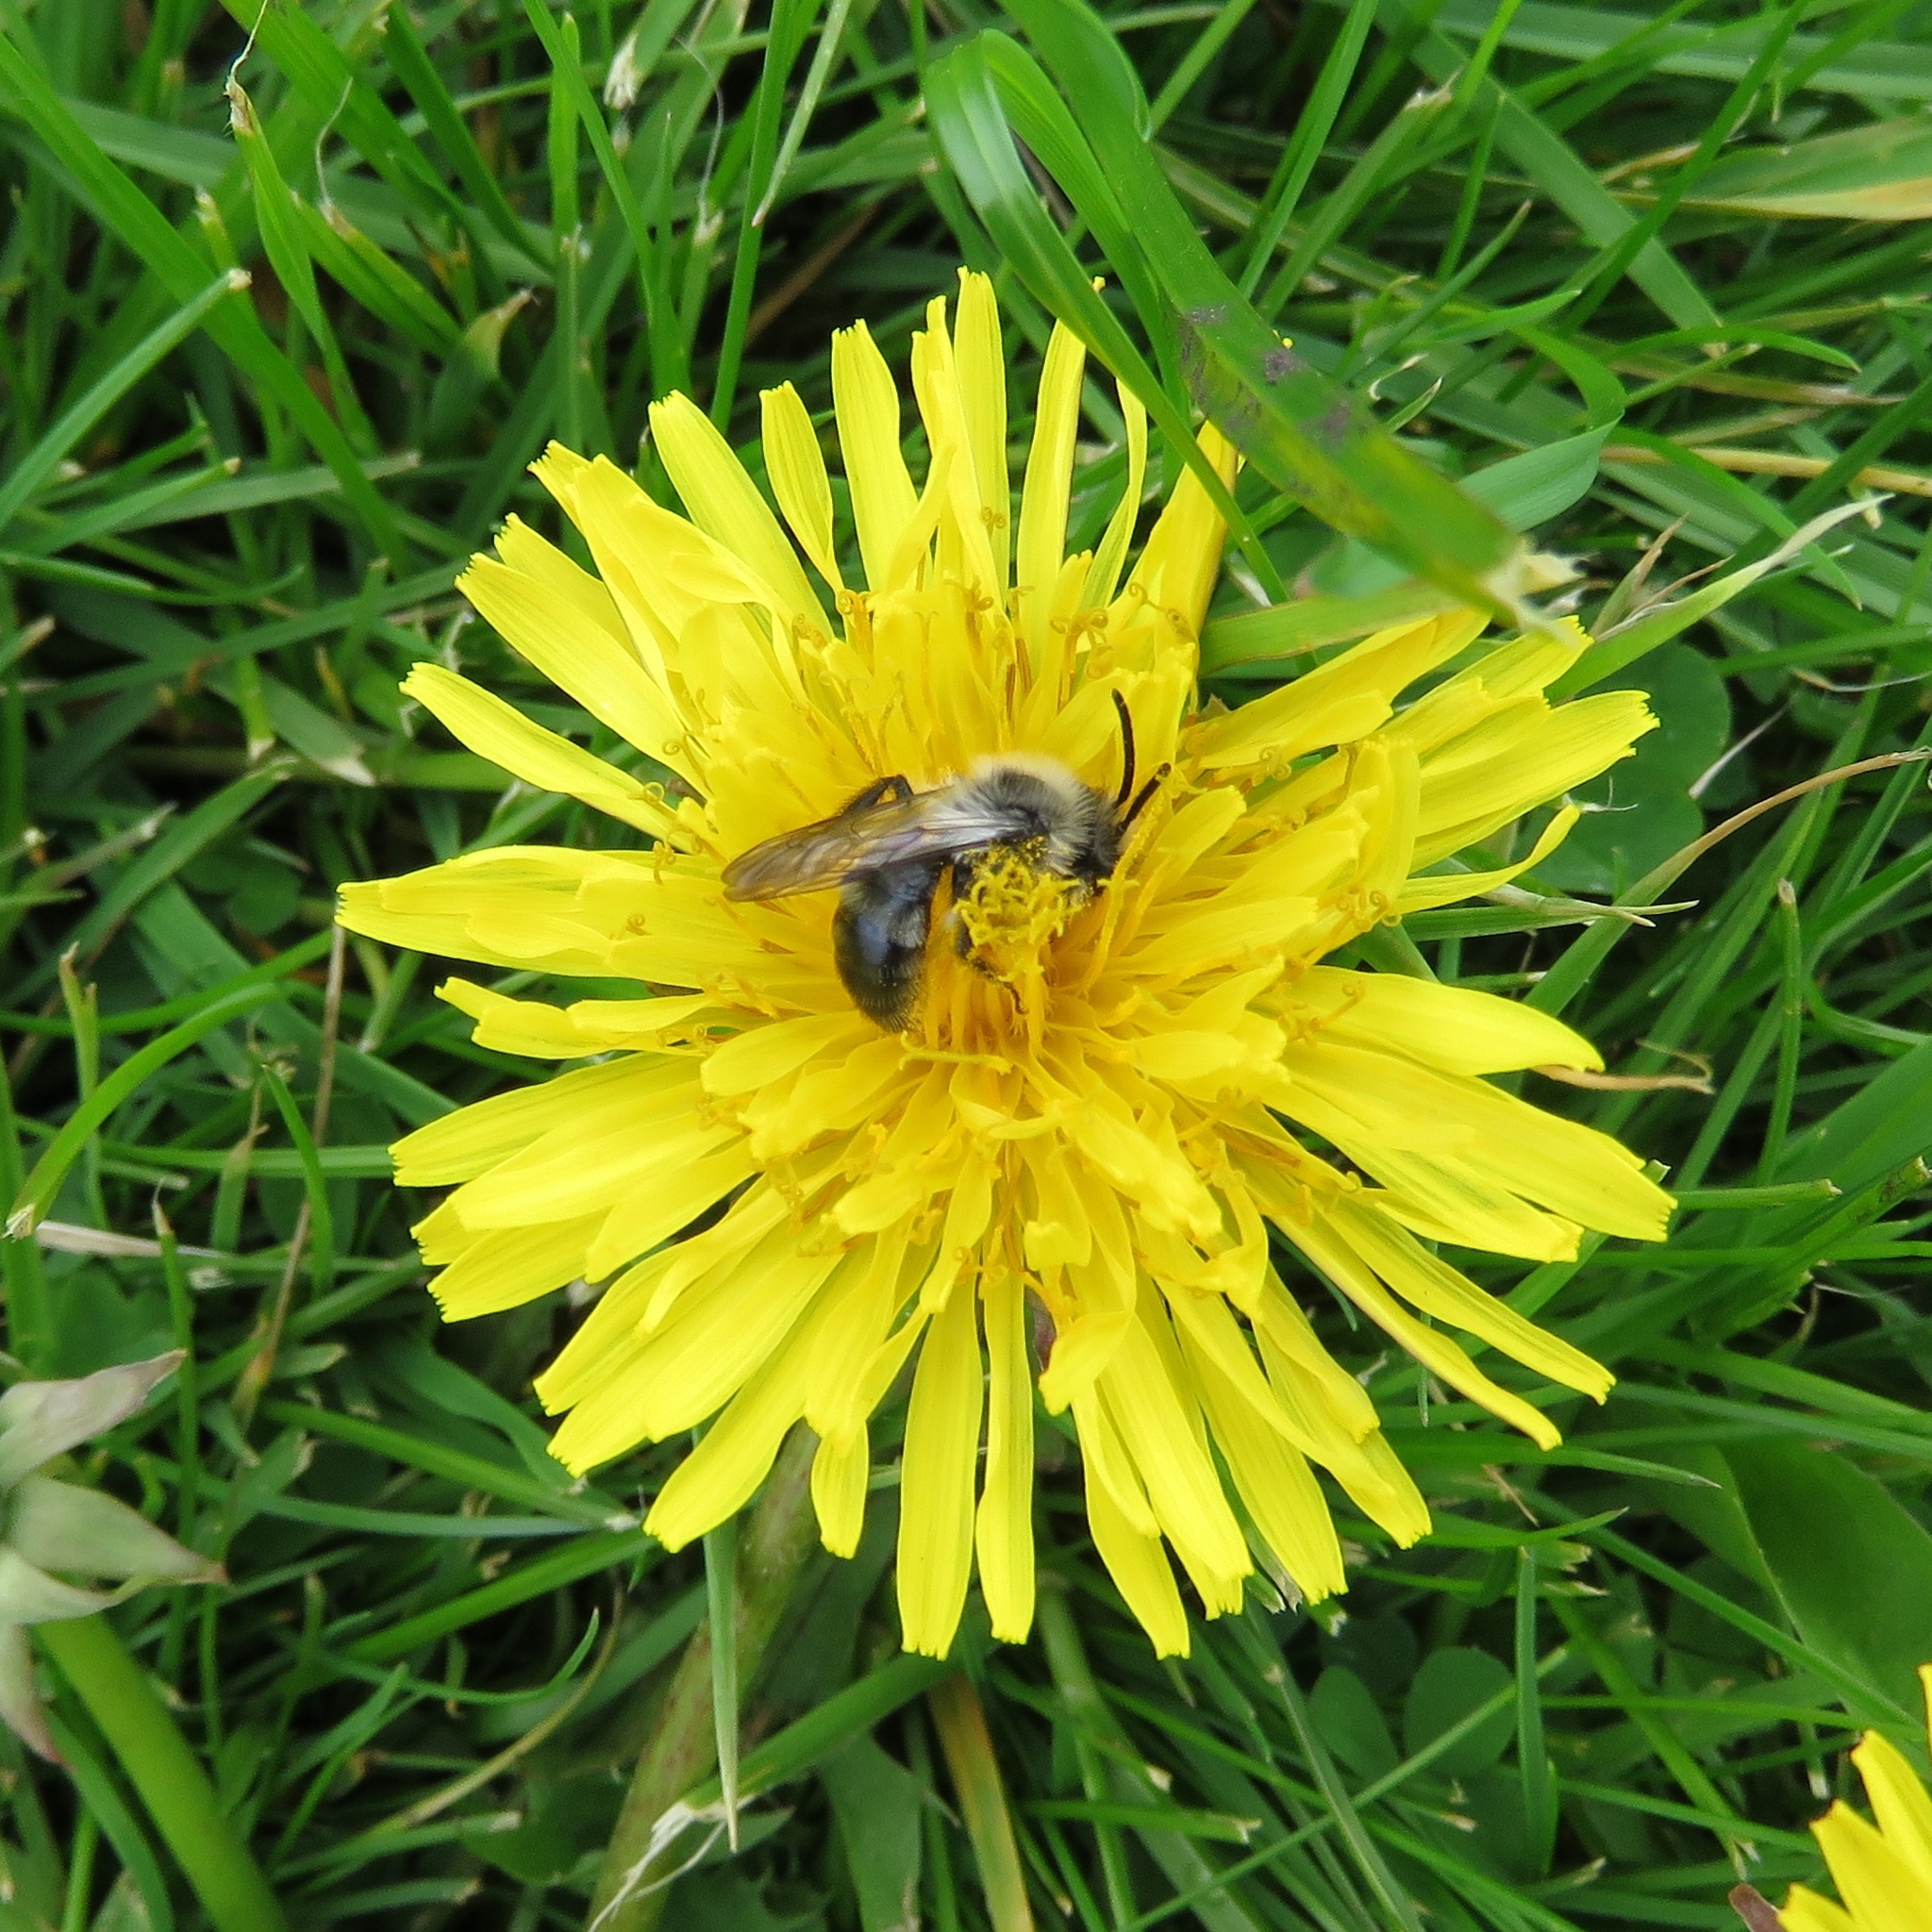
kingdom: Animalia
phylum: Arthropoda
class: Insecta
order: Hymenoptera
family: Andrenidae
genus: Andrena
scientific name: Andrena cineraria
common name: Ashy mining bee
